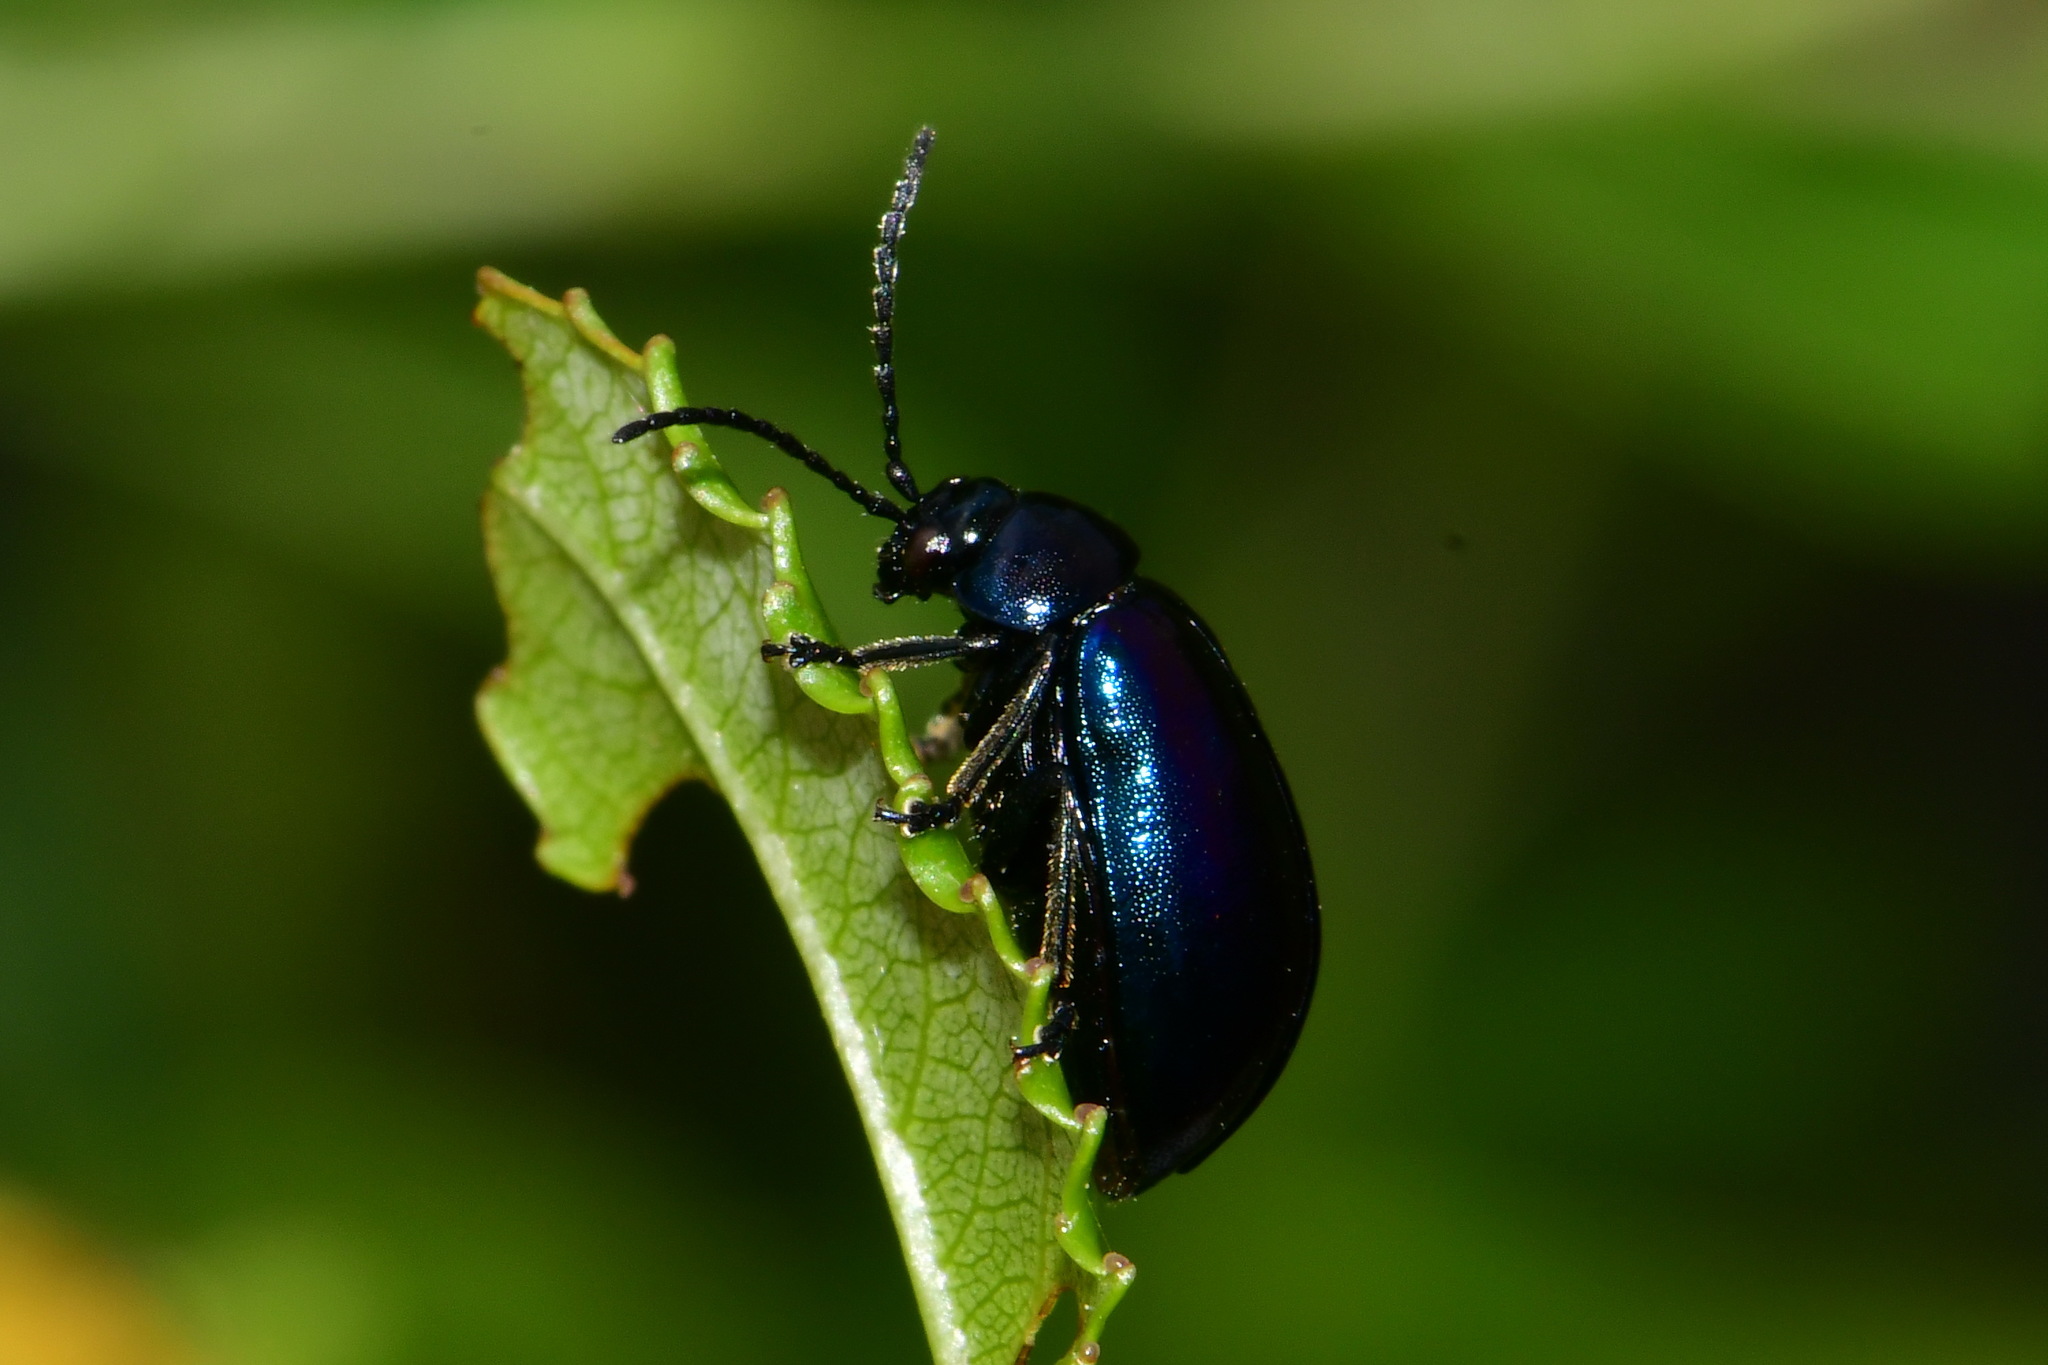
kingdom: Animalia
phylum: Arthropoda
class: Insecta
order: Coleoptera
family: Chrysomelidae
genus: Agelastica
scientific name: Agelastica alni
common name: Alder leaf beetle
